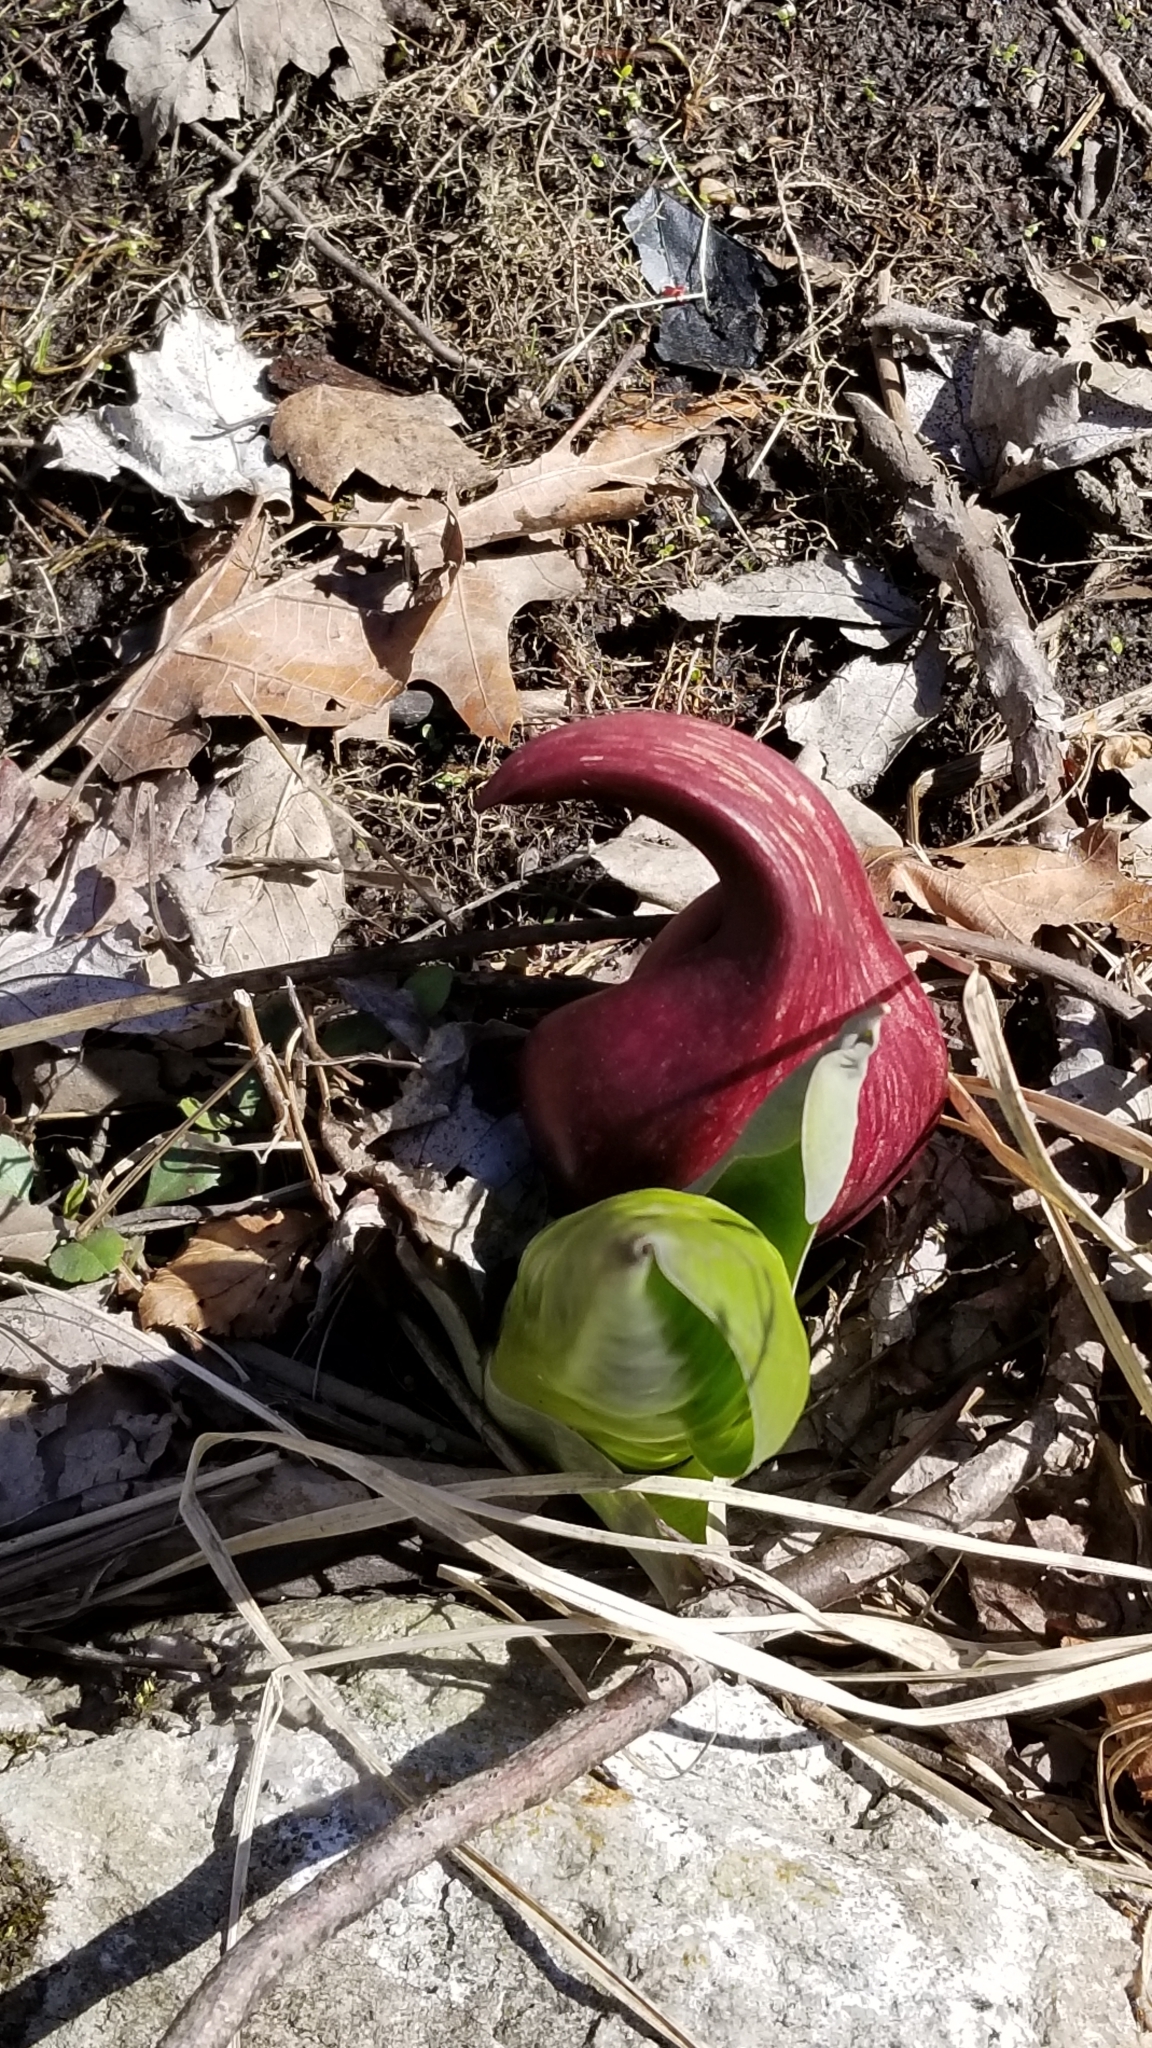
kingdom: Plantae
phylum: Tracheophyta
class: Liliopsida
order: Alismatales
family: Araceae
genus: Symplocarpus
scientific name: Symplocarpus foetidus
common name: Eastern skunk cabbage
